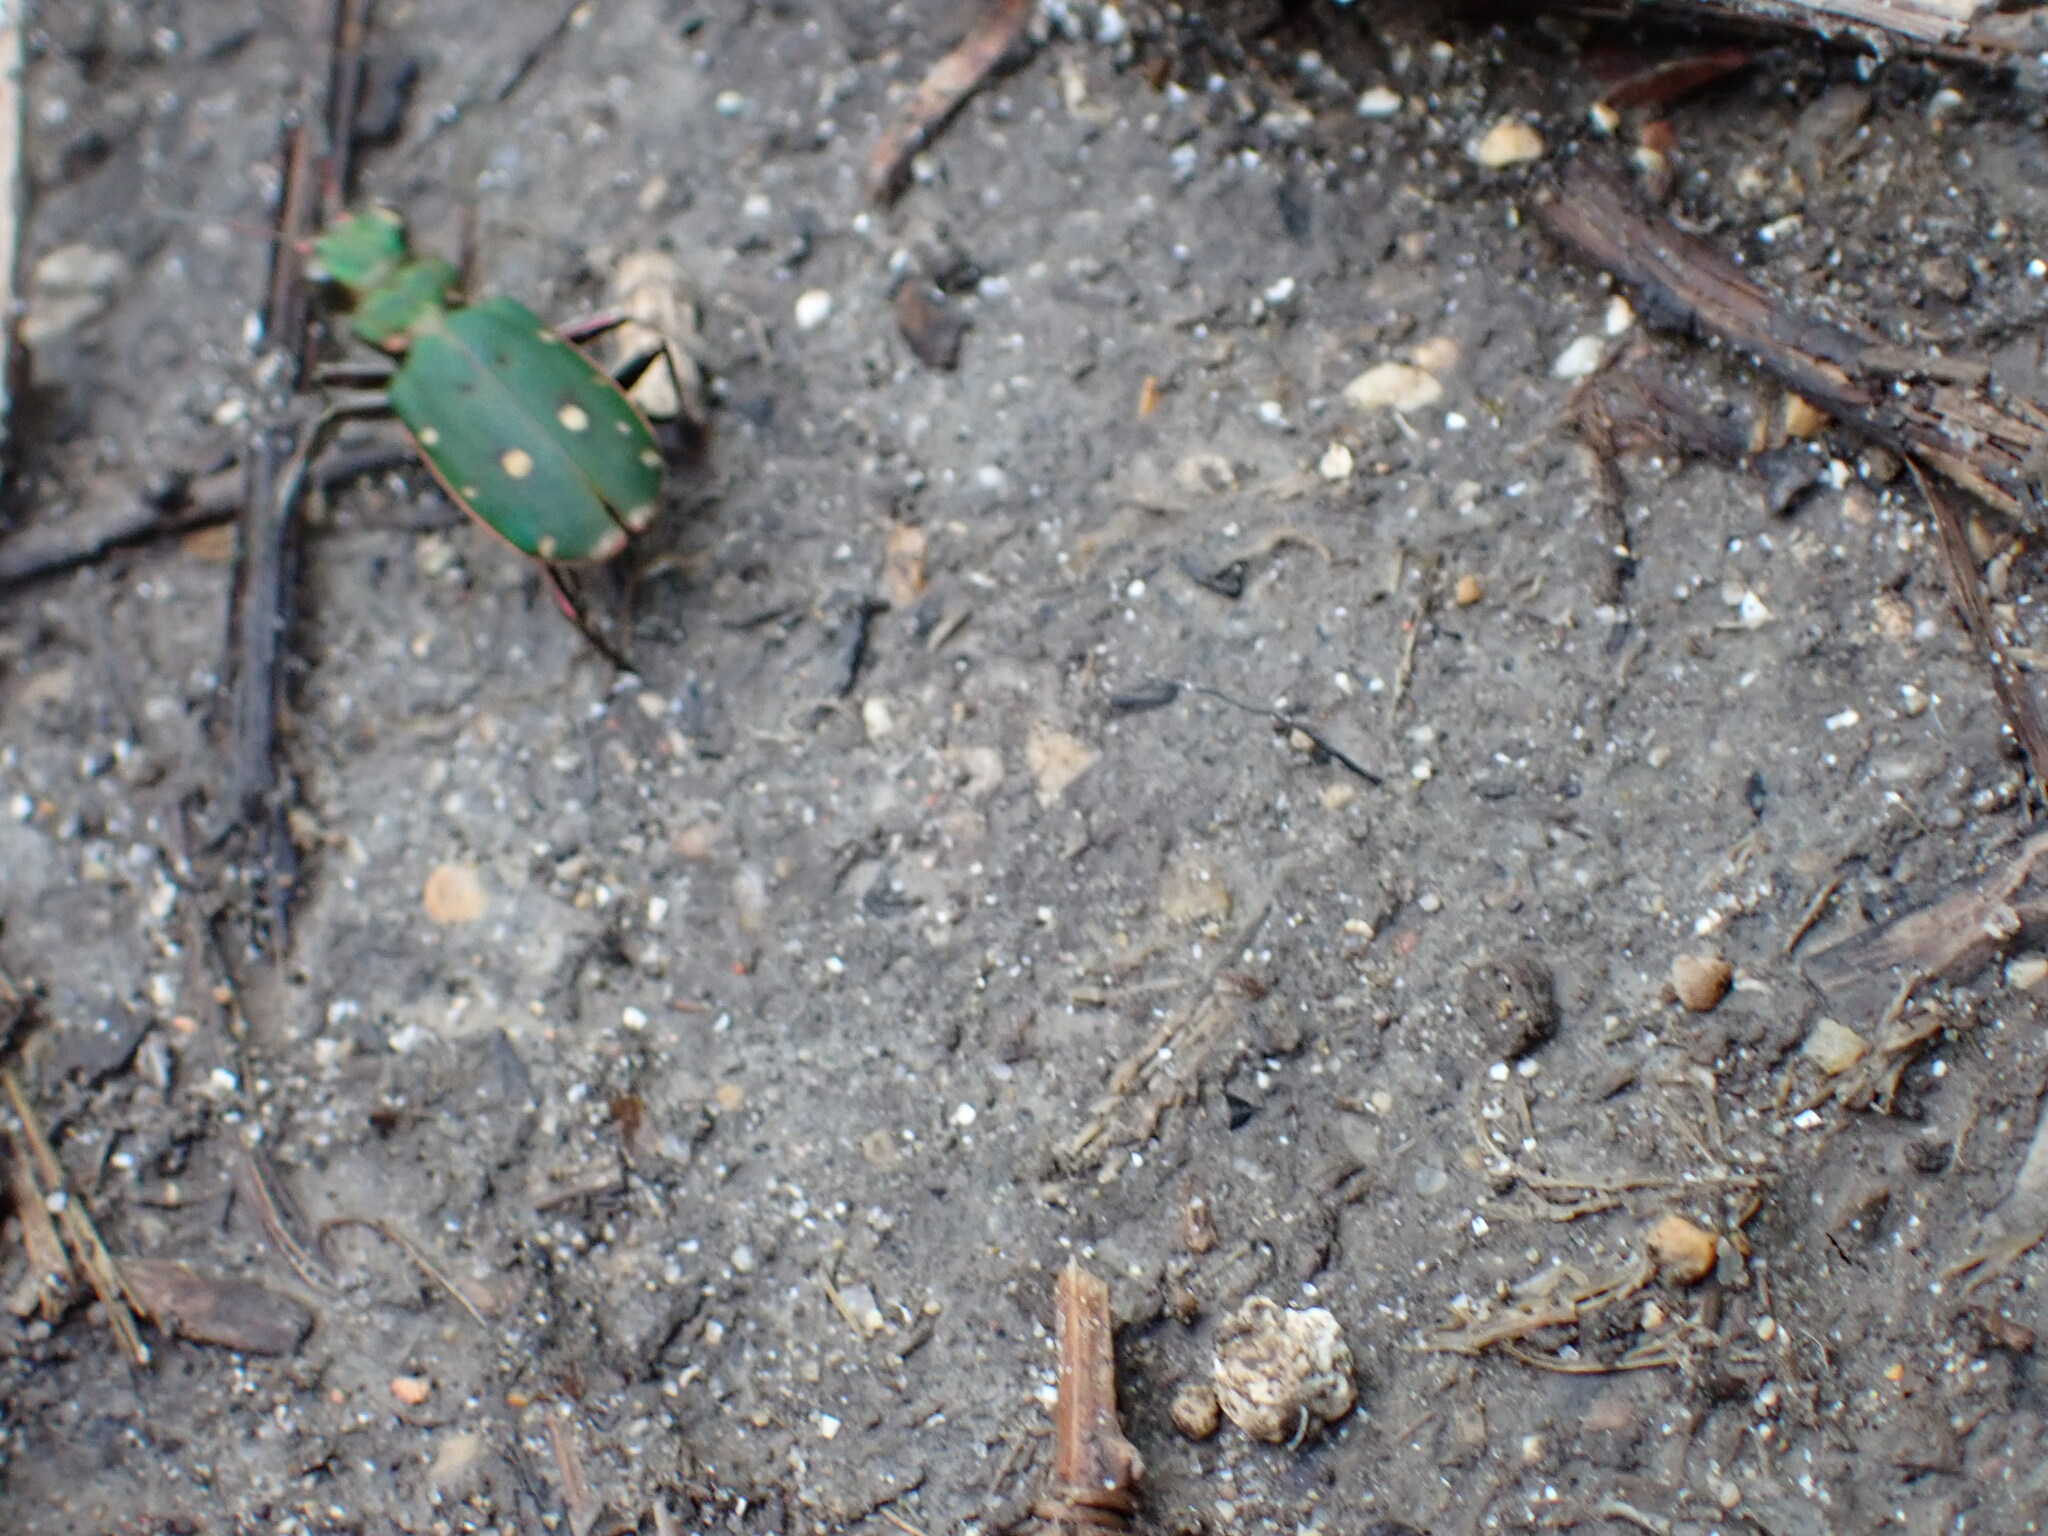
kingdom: Animalia
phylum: Arthropoda
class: Insecta
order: Coleoptera
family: Carabidae
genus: Cicindela
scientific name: Cicindela campestris
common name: Common tiger beetle
